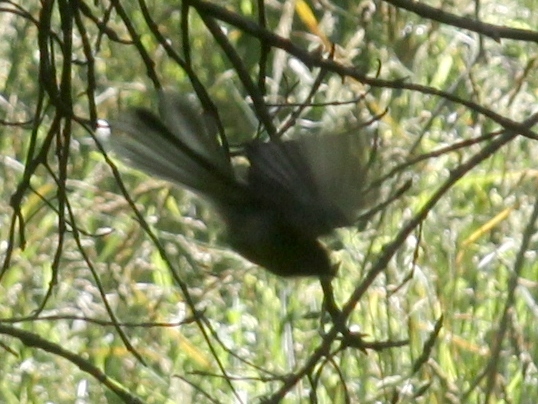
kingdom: Animalia
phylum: Chordata
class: Aves
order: Passeriformes
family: Rhipiduridae
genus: Rhipidura
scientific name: Rhipidura fuliginosa
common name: New zealand fantail
